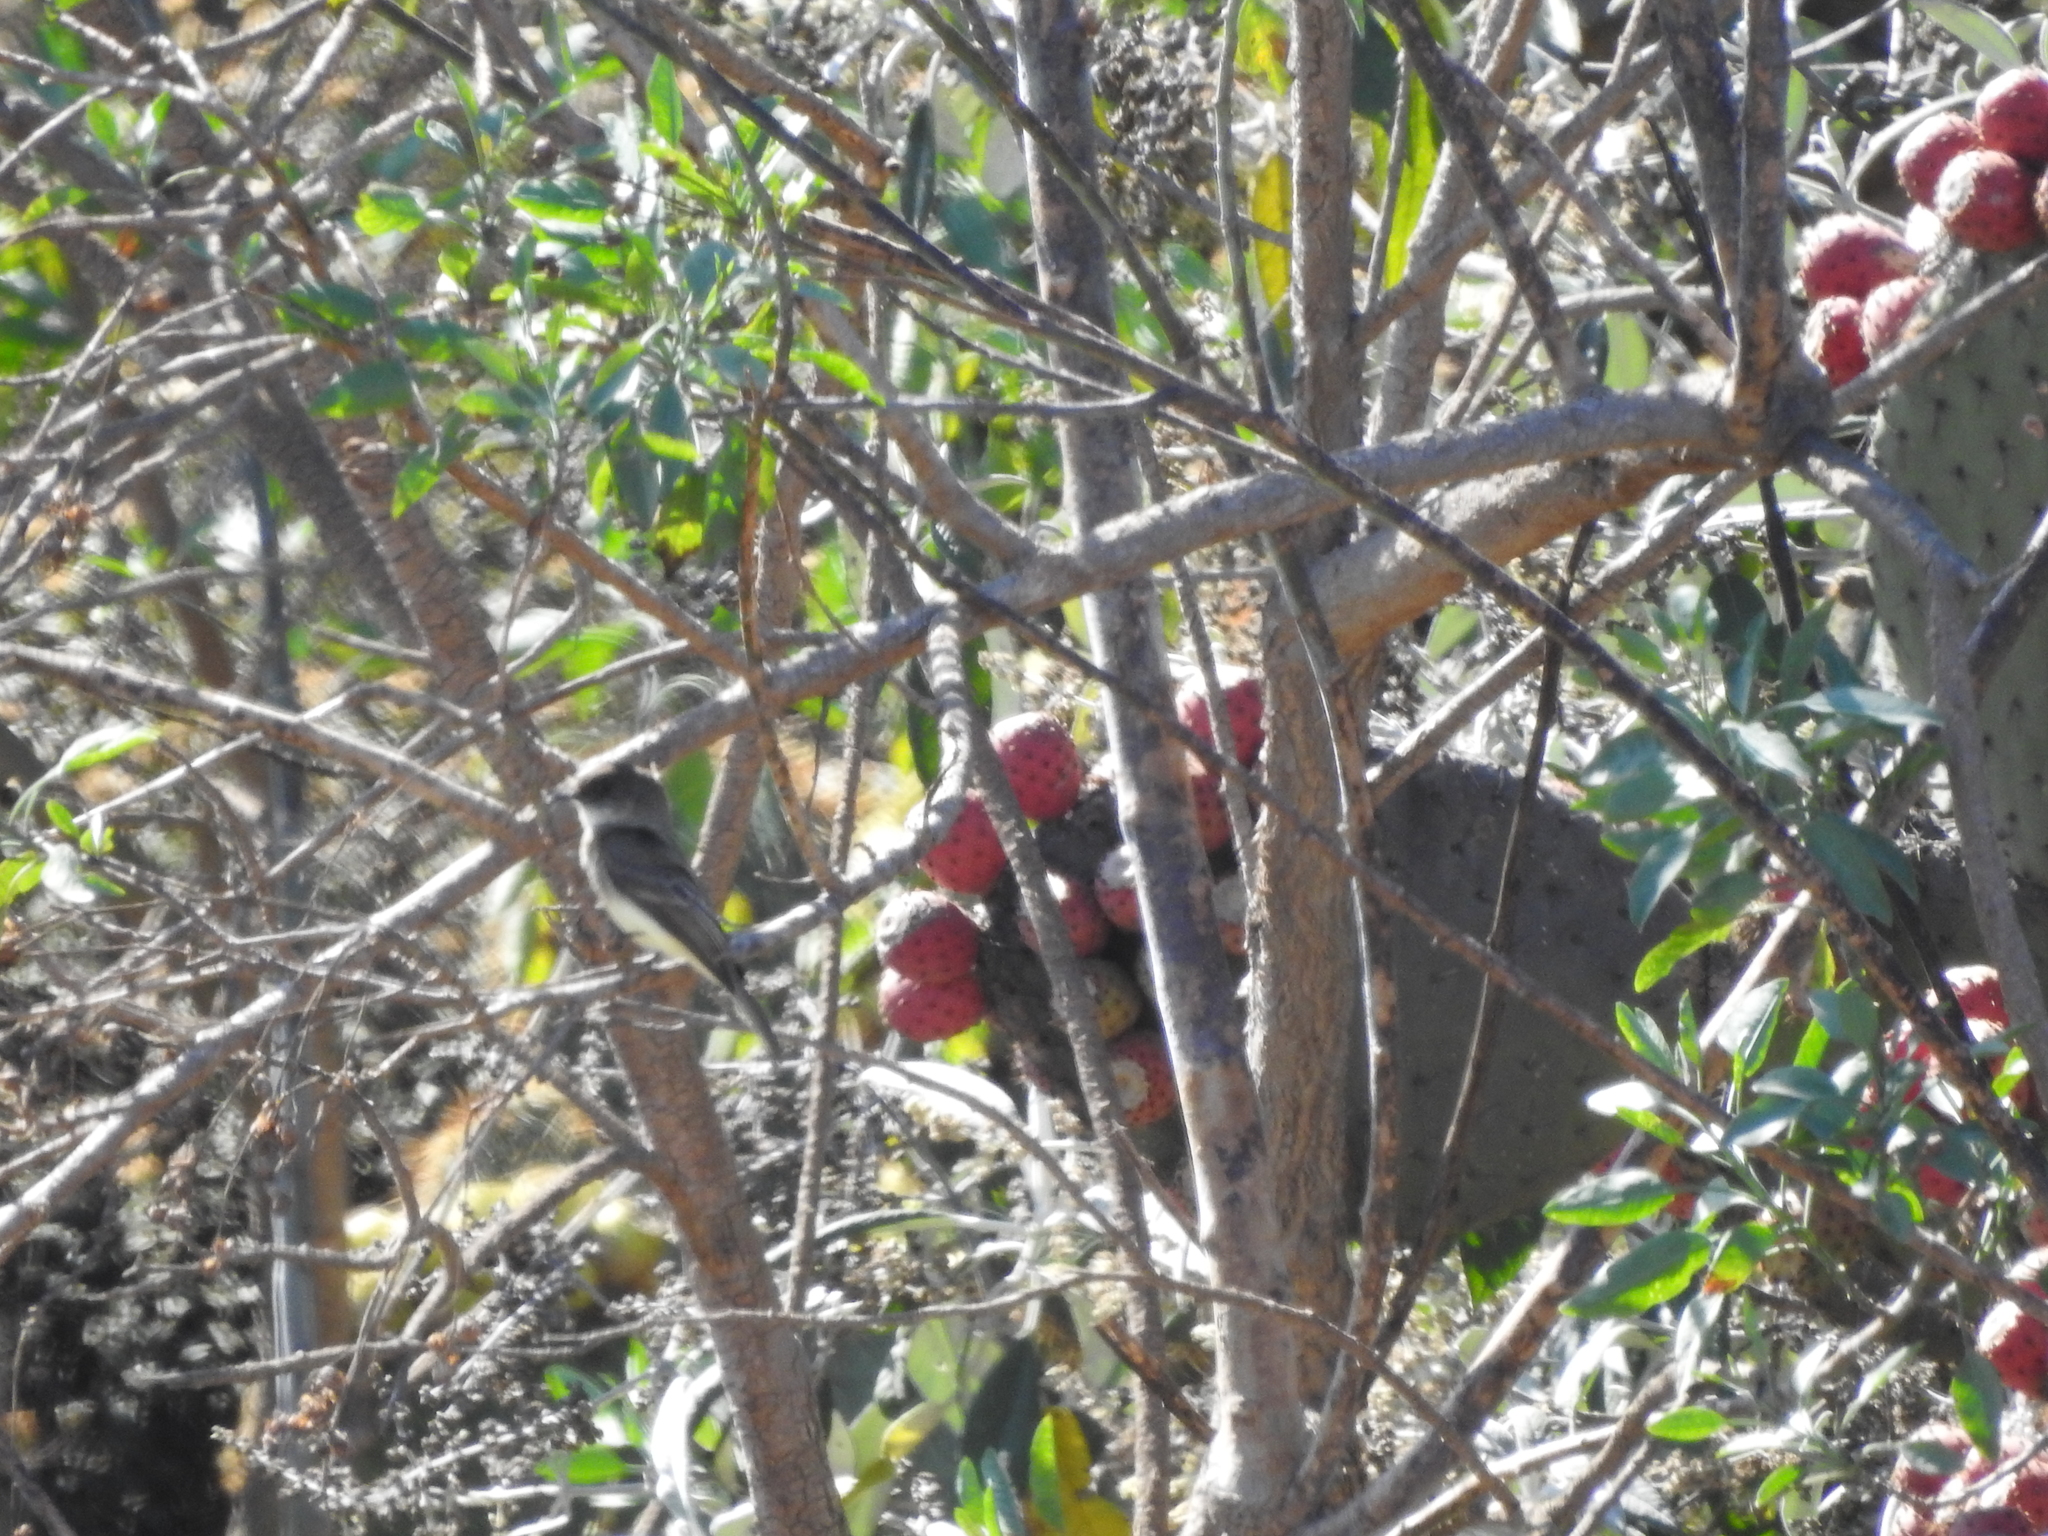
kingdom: Animalia
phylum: Chordata
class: Aves
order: Passeriformes
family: Tyrannidae
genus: Sayornis
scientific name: Sayornis phoebe
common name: Eastern phoebe
